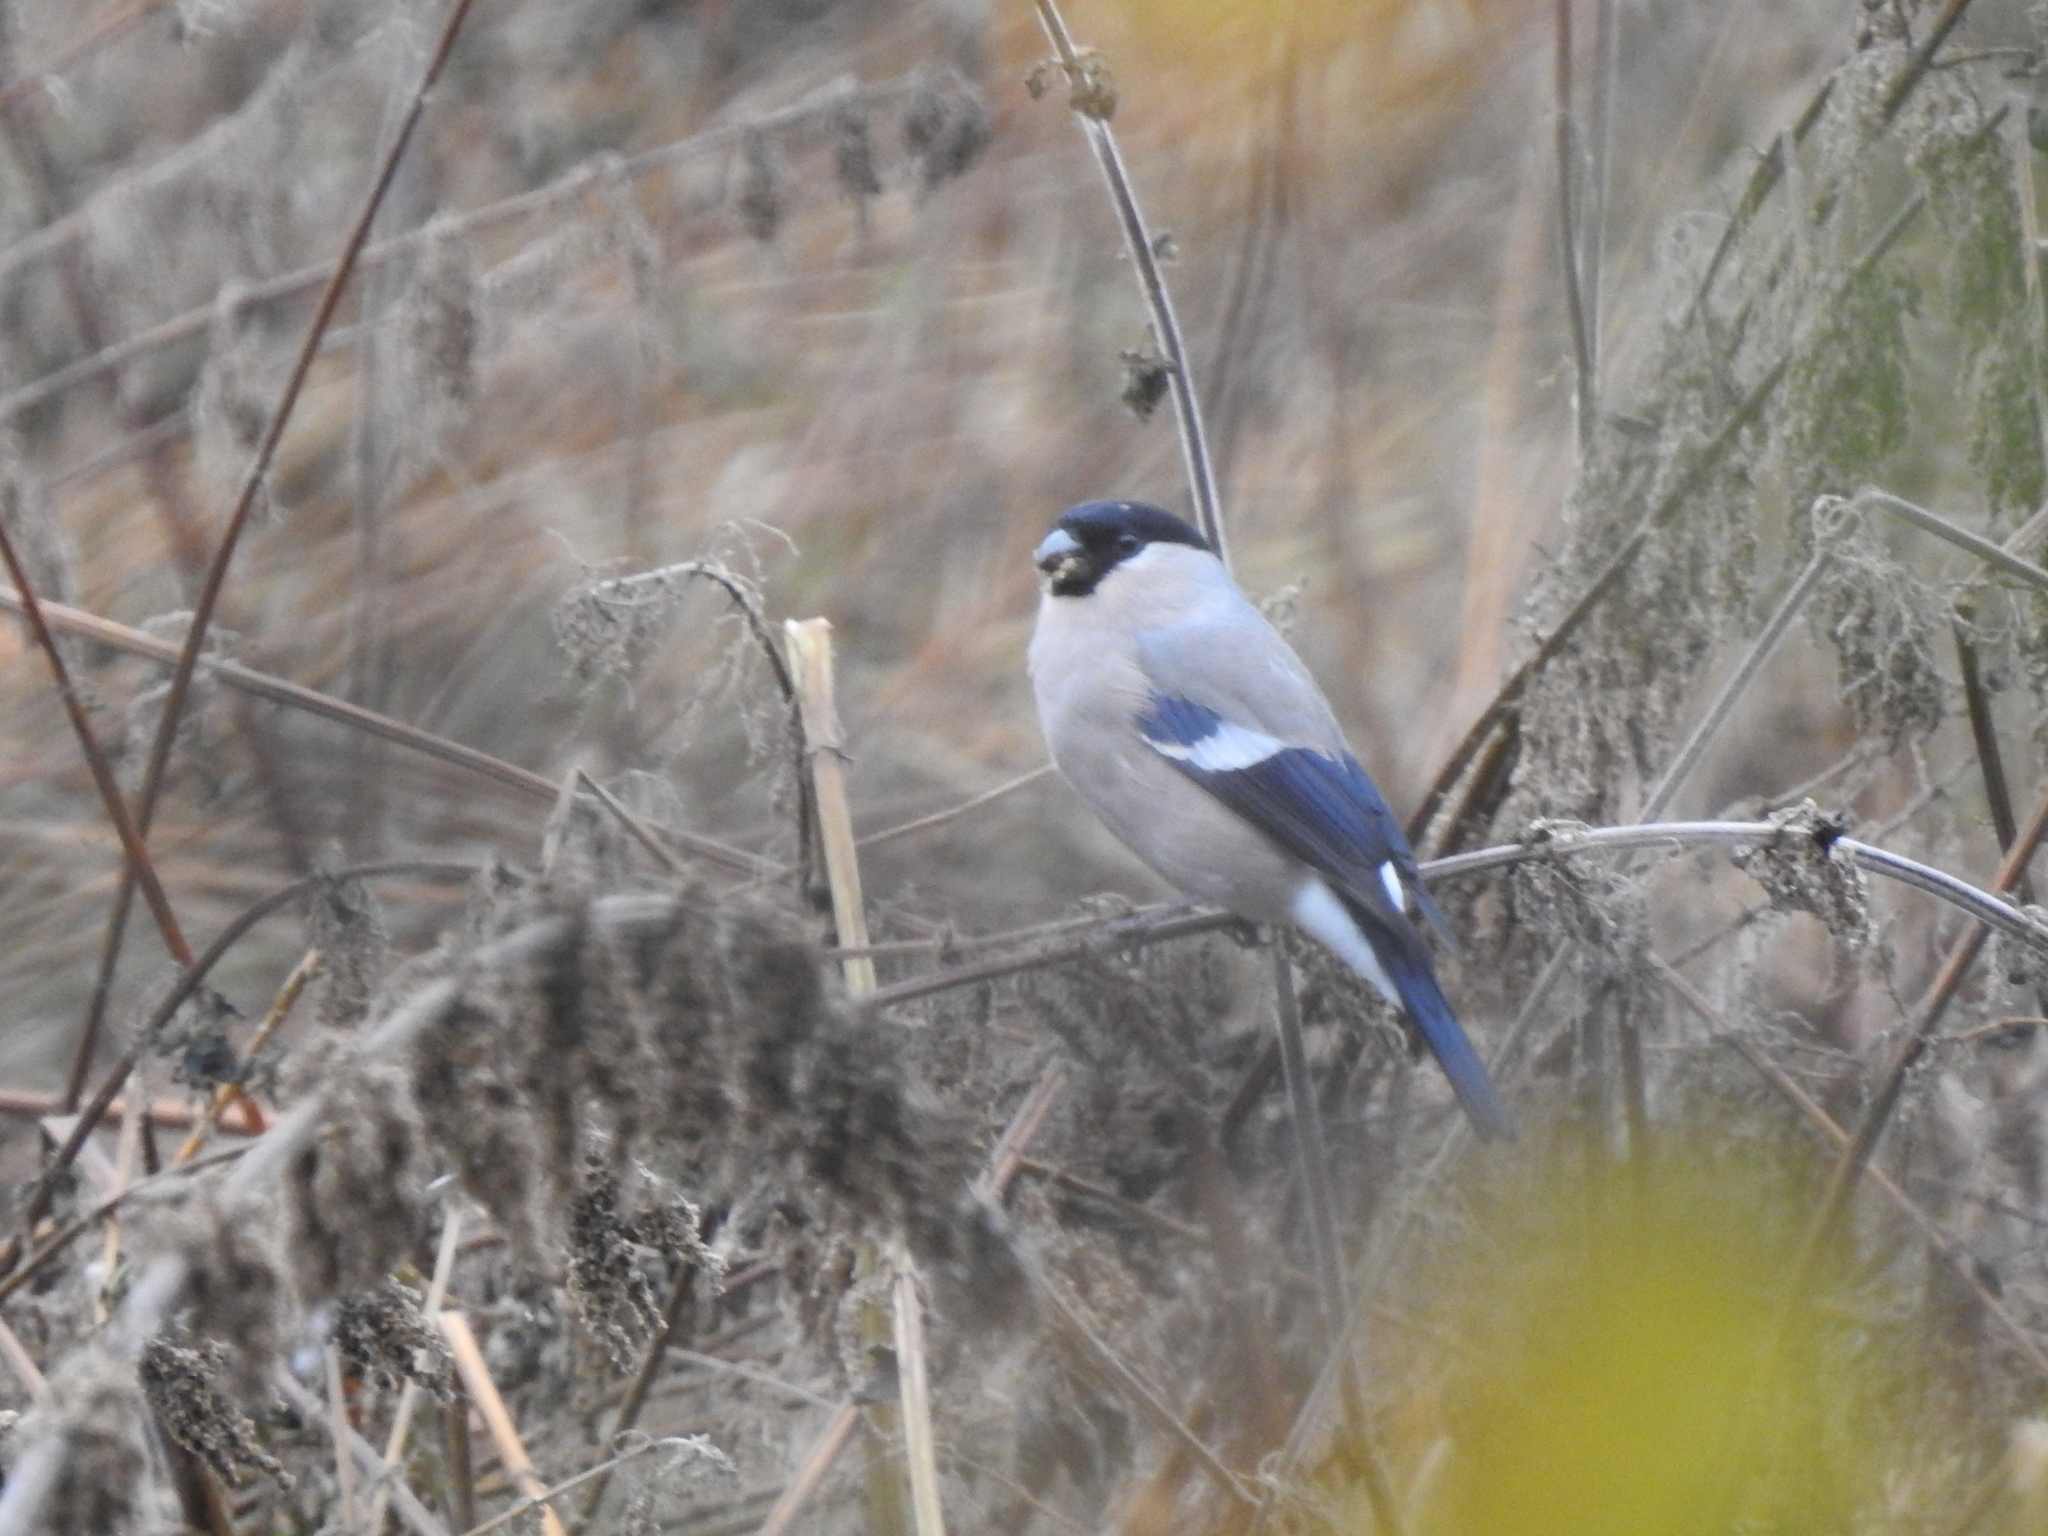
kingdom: Animalia
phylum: Chordata
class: Aves
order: Passeriformes
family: Fringillidae
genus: Pyrrhula
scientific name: Pyrrhula pyrrhula
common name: Eurasian bullfinch
